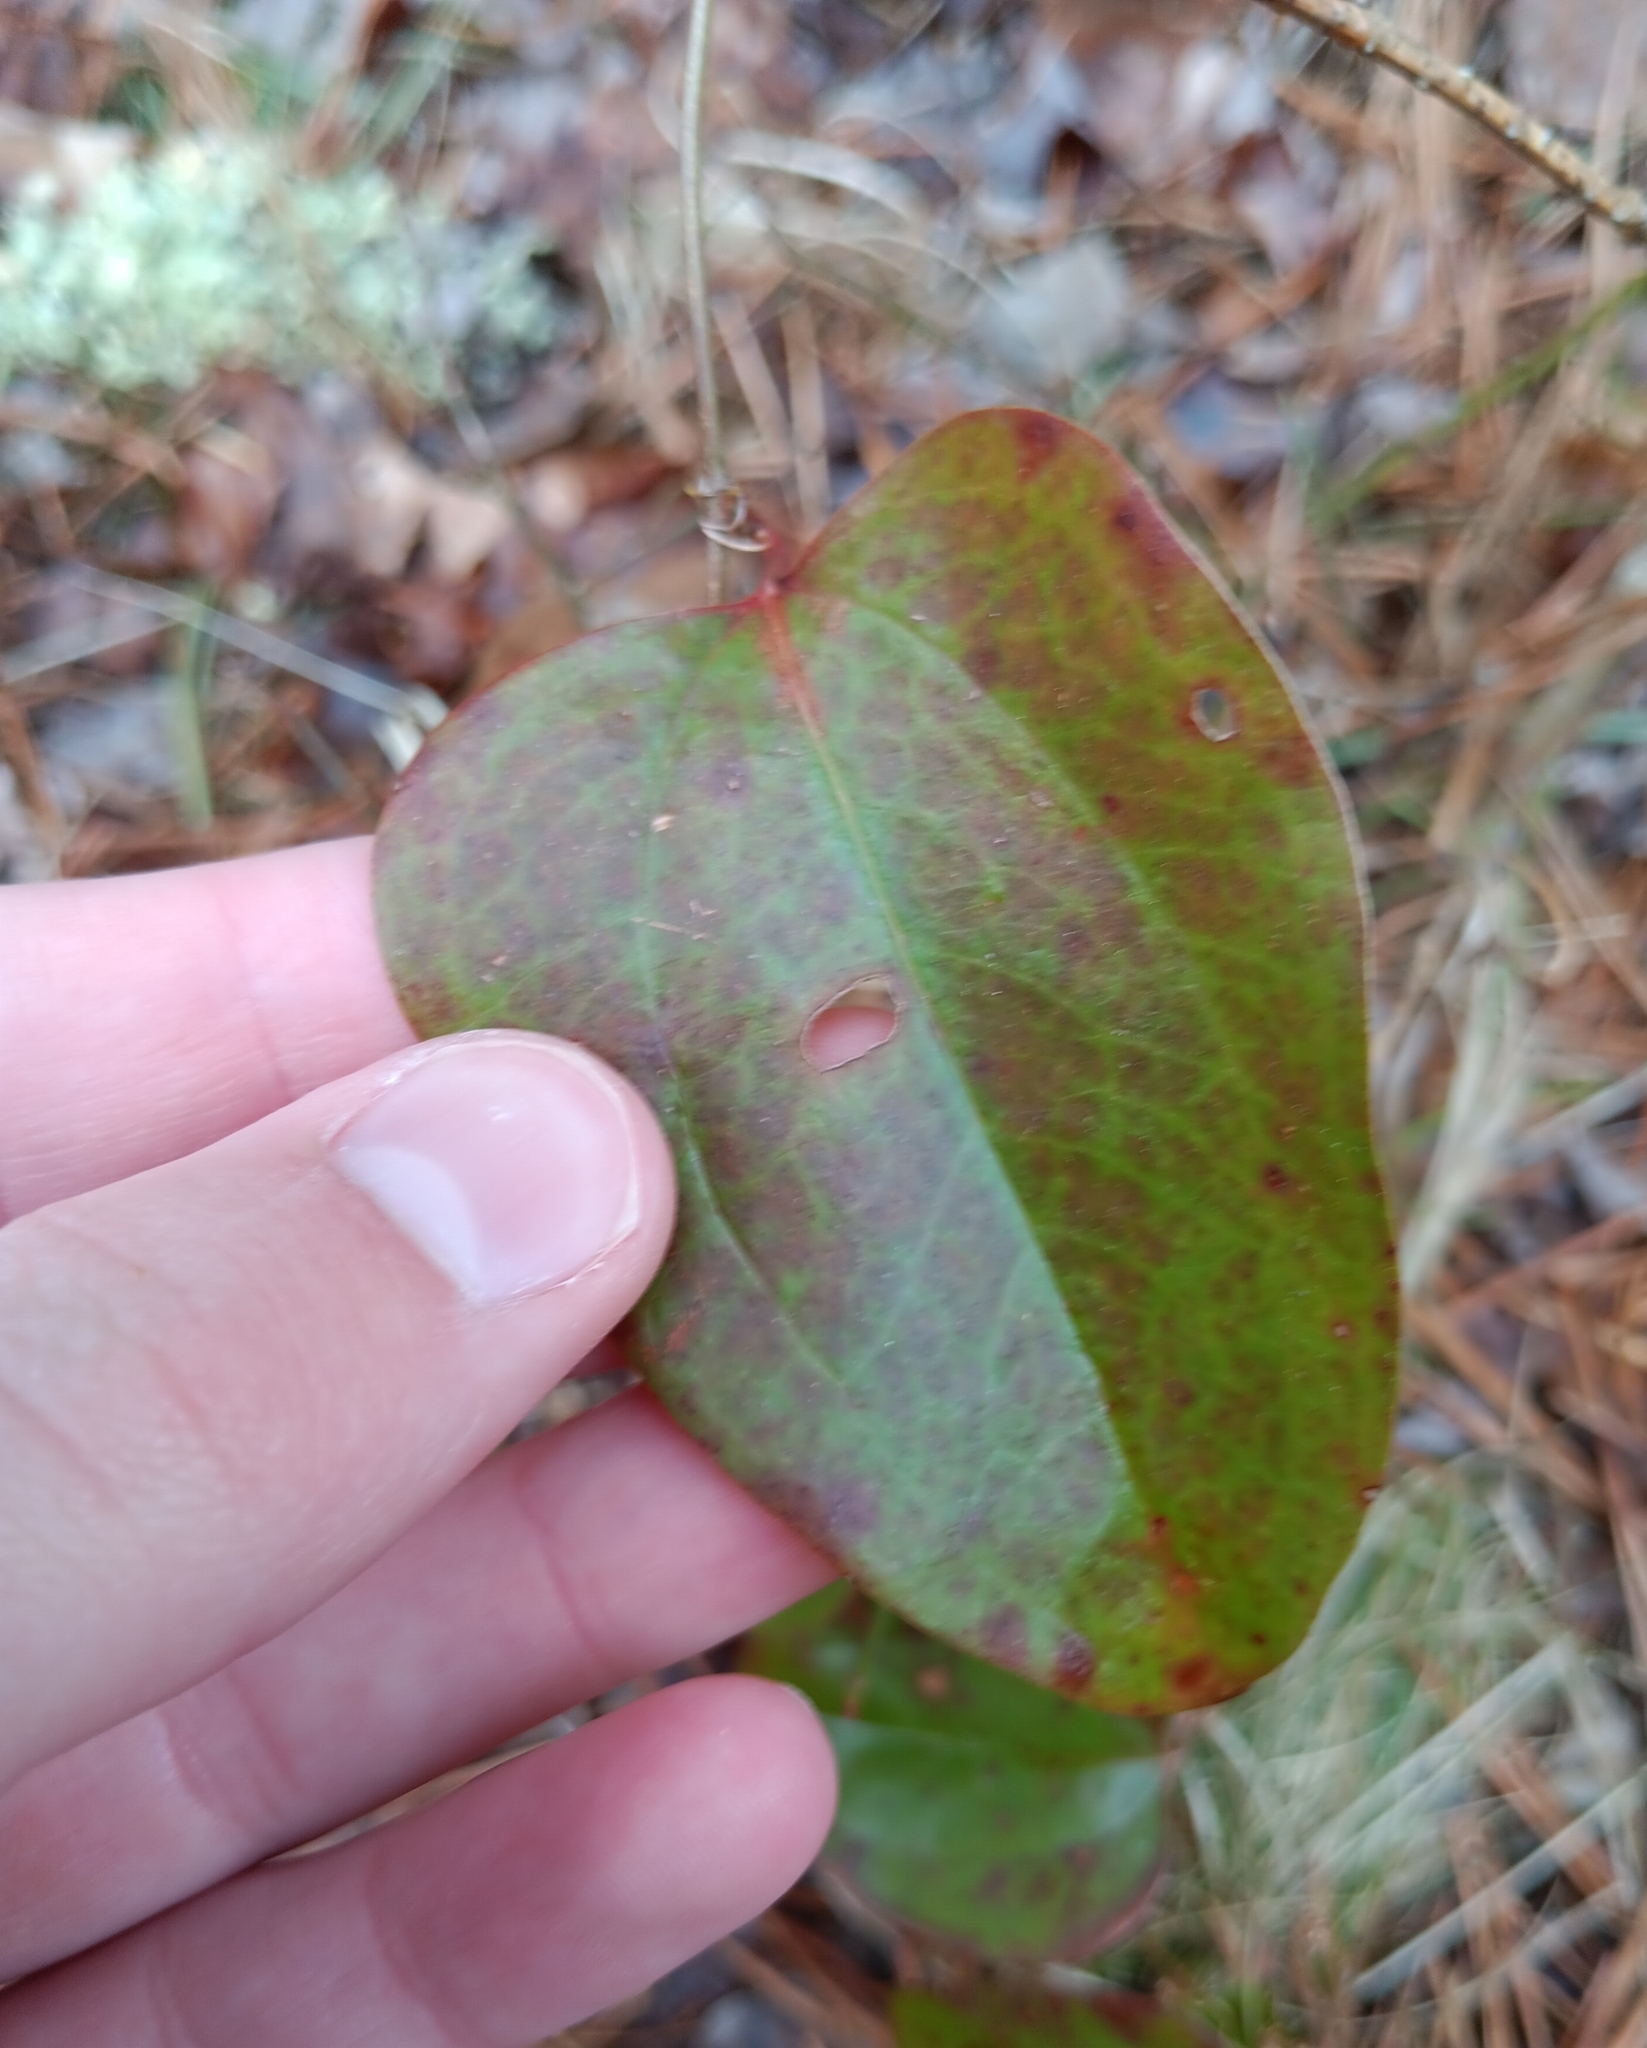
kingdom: Plantae
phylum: Tracheophyta
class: Liliopsida
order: Liliales
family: Smilacaceae
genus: Smilax
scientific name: Smilax glauca
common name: Cat greenbrier
